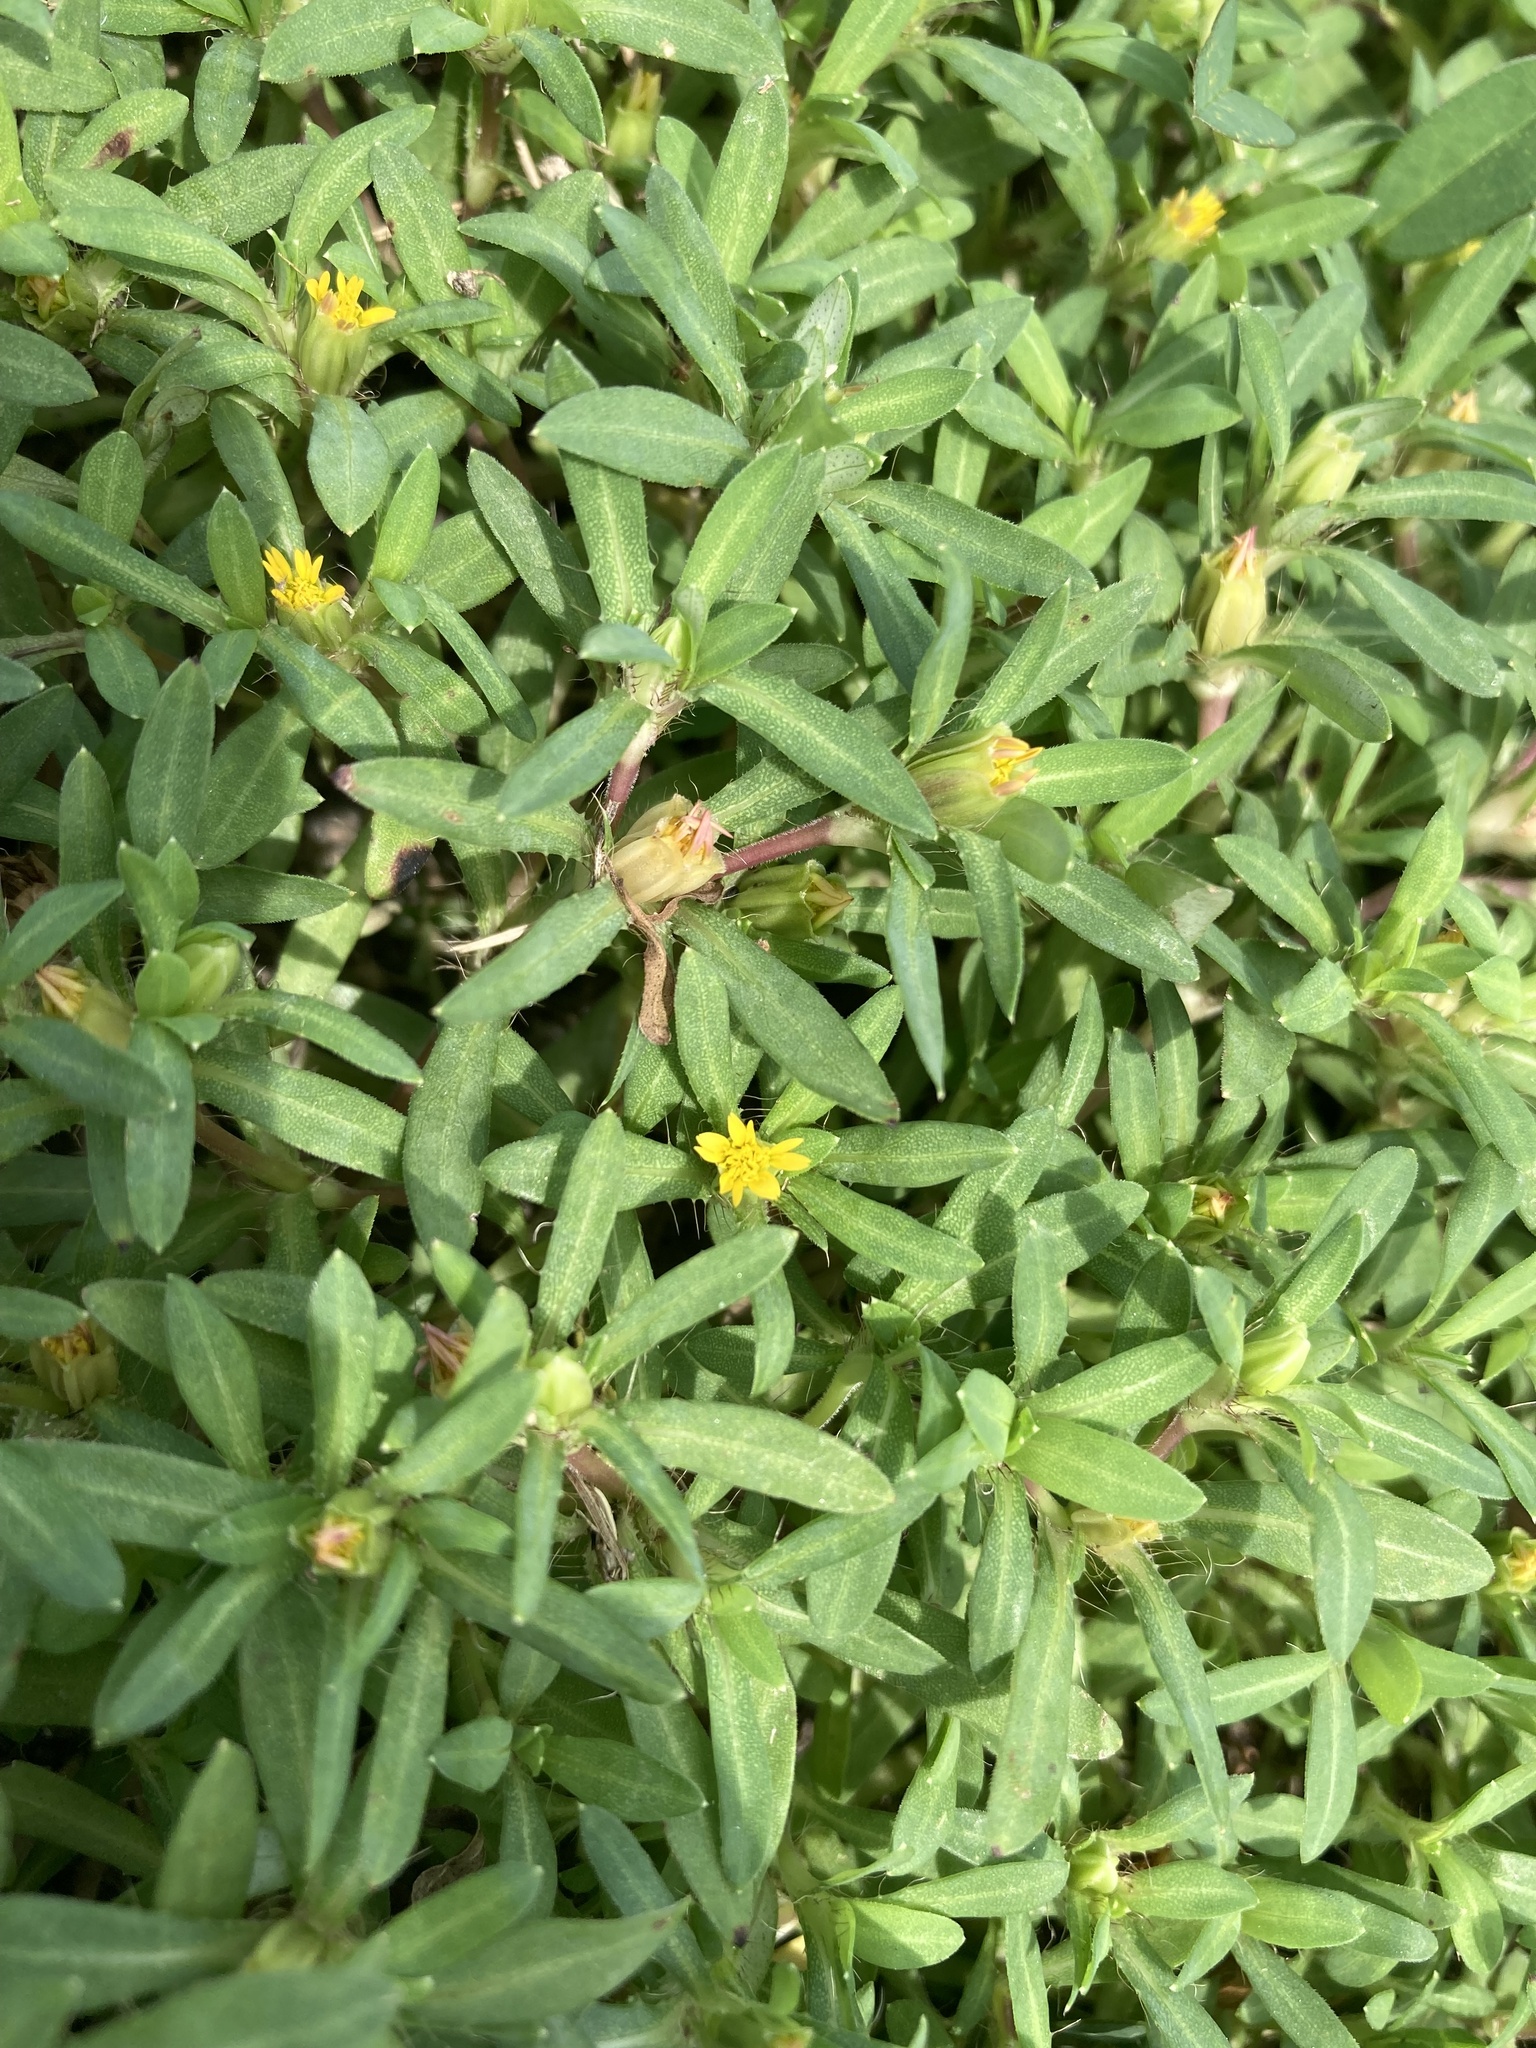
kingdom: Plantae
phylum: Tracheophyta
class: Magnoliopsida
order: Asterales
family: Asteraceae
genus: Pectis
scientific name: Pectis prostrata
